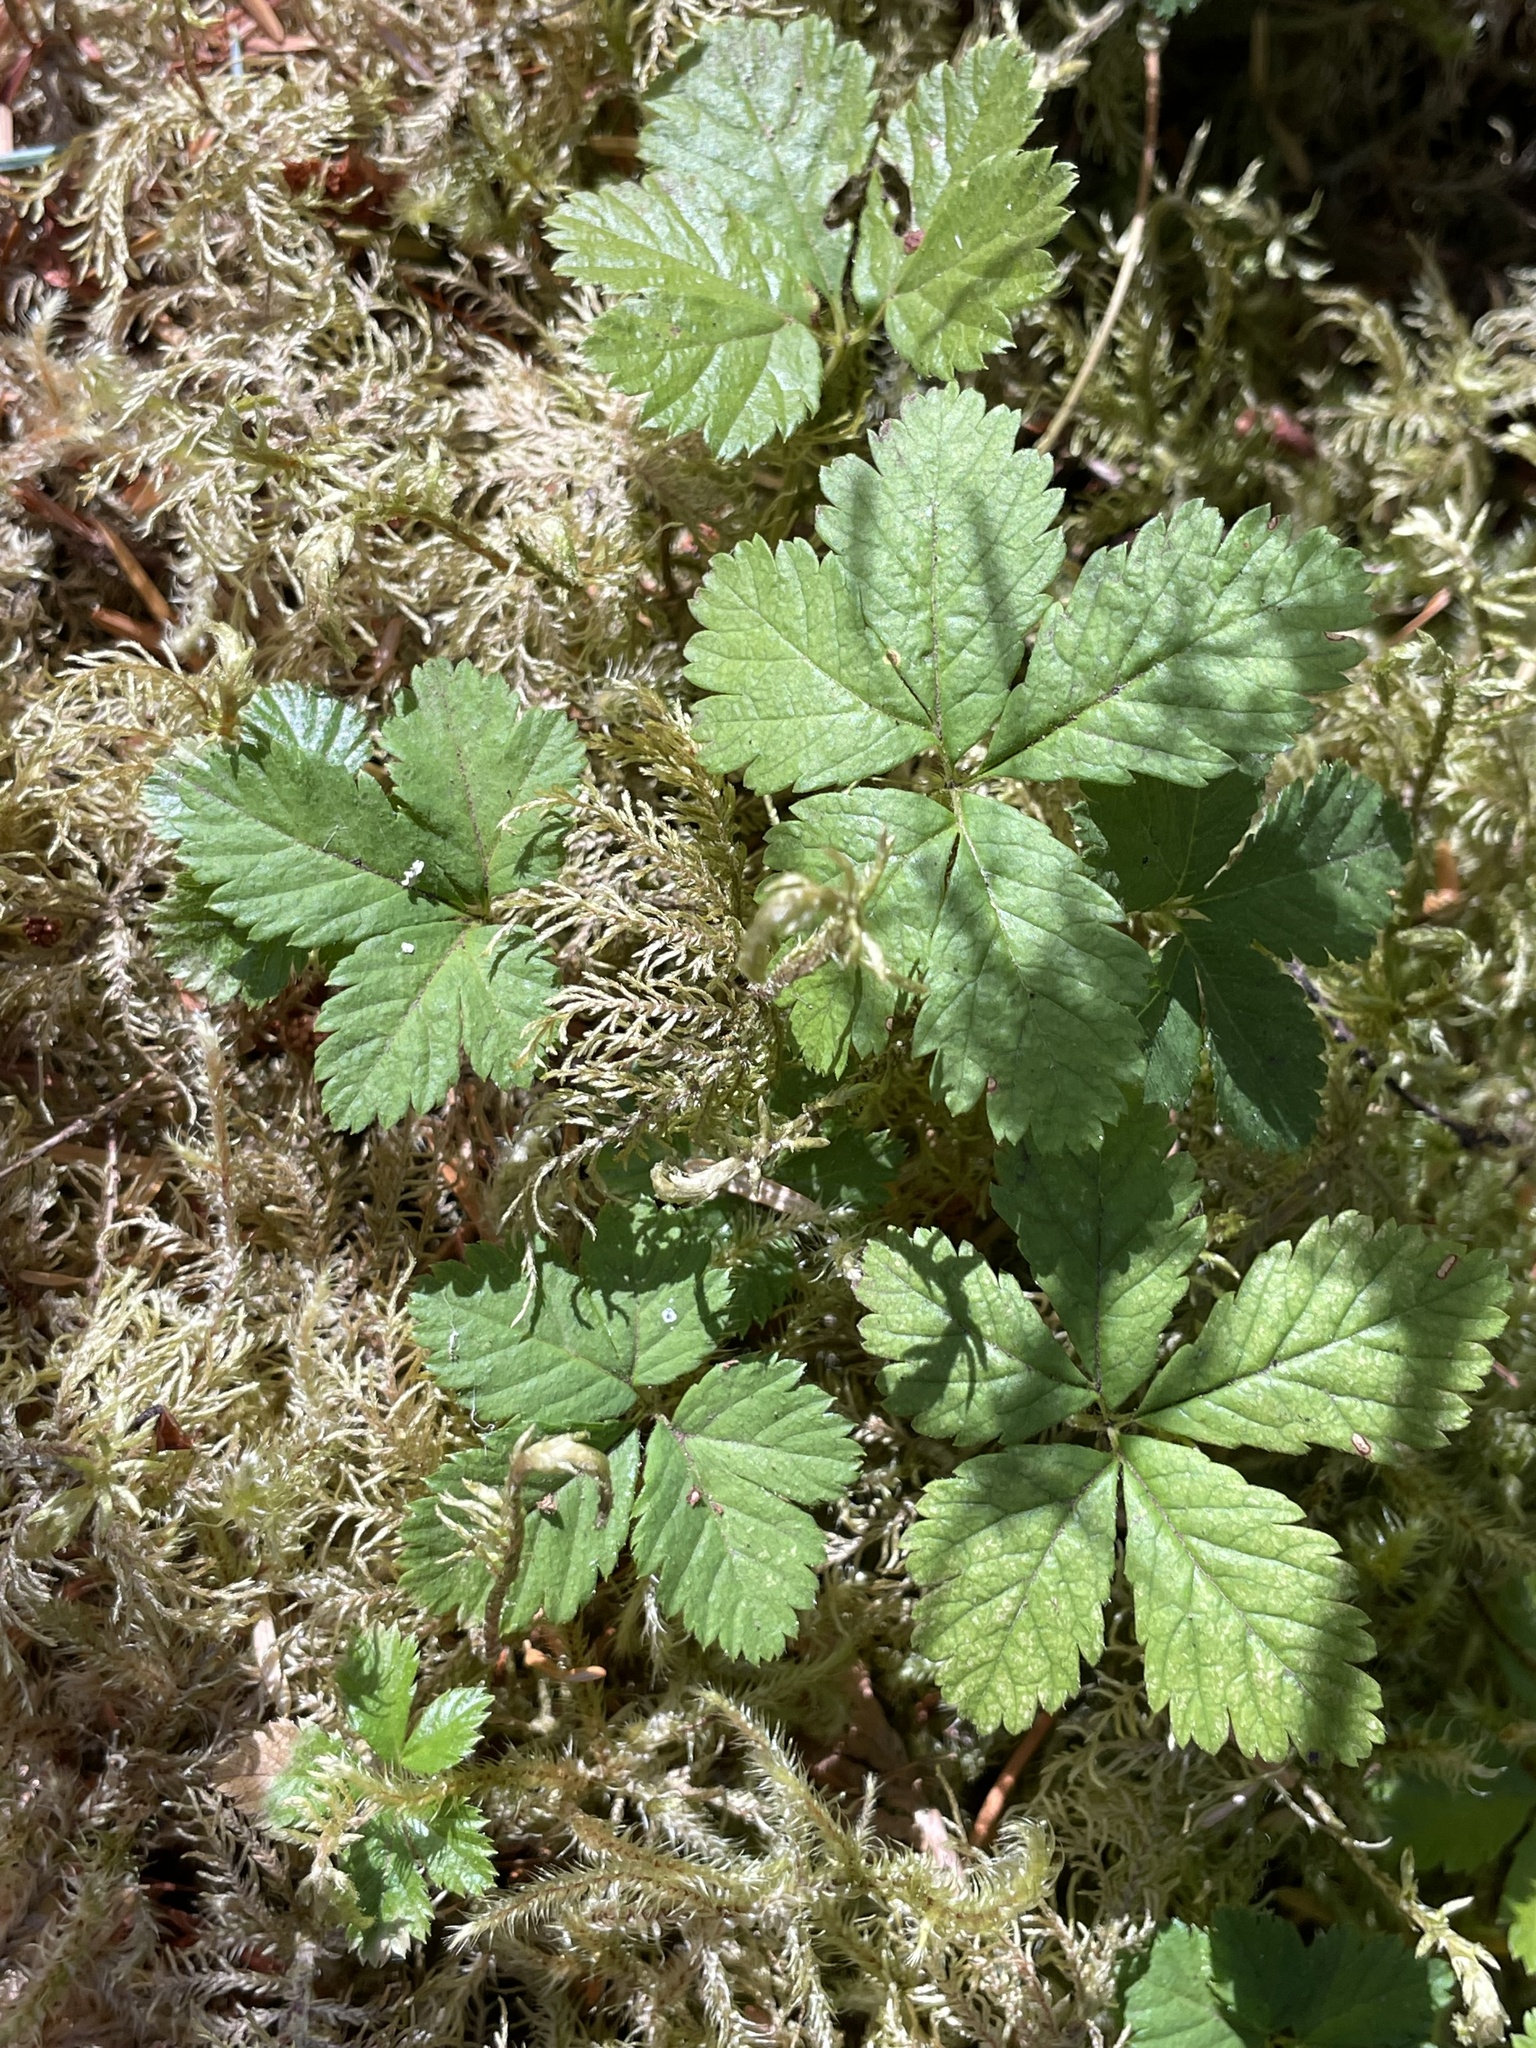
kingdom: Plantae
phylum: Tracheophyta
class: Magnoliopsida
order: Rosales
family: Rosaceae
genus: Rubus
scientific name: Rubus pedatus
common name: Creeping raspberry
